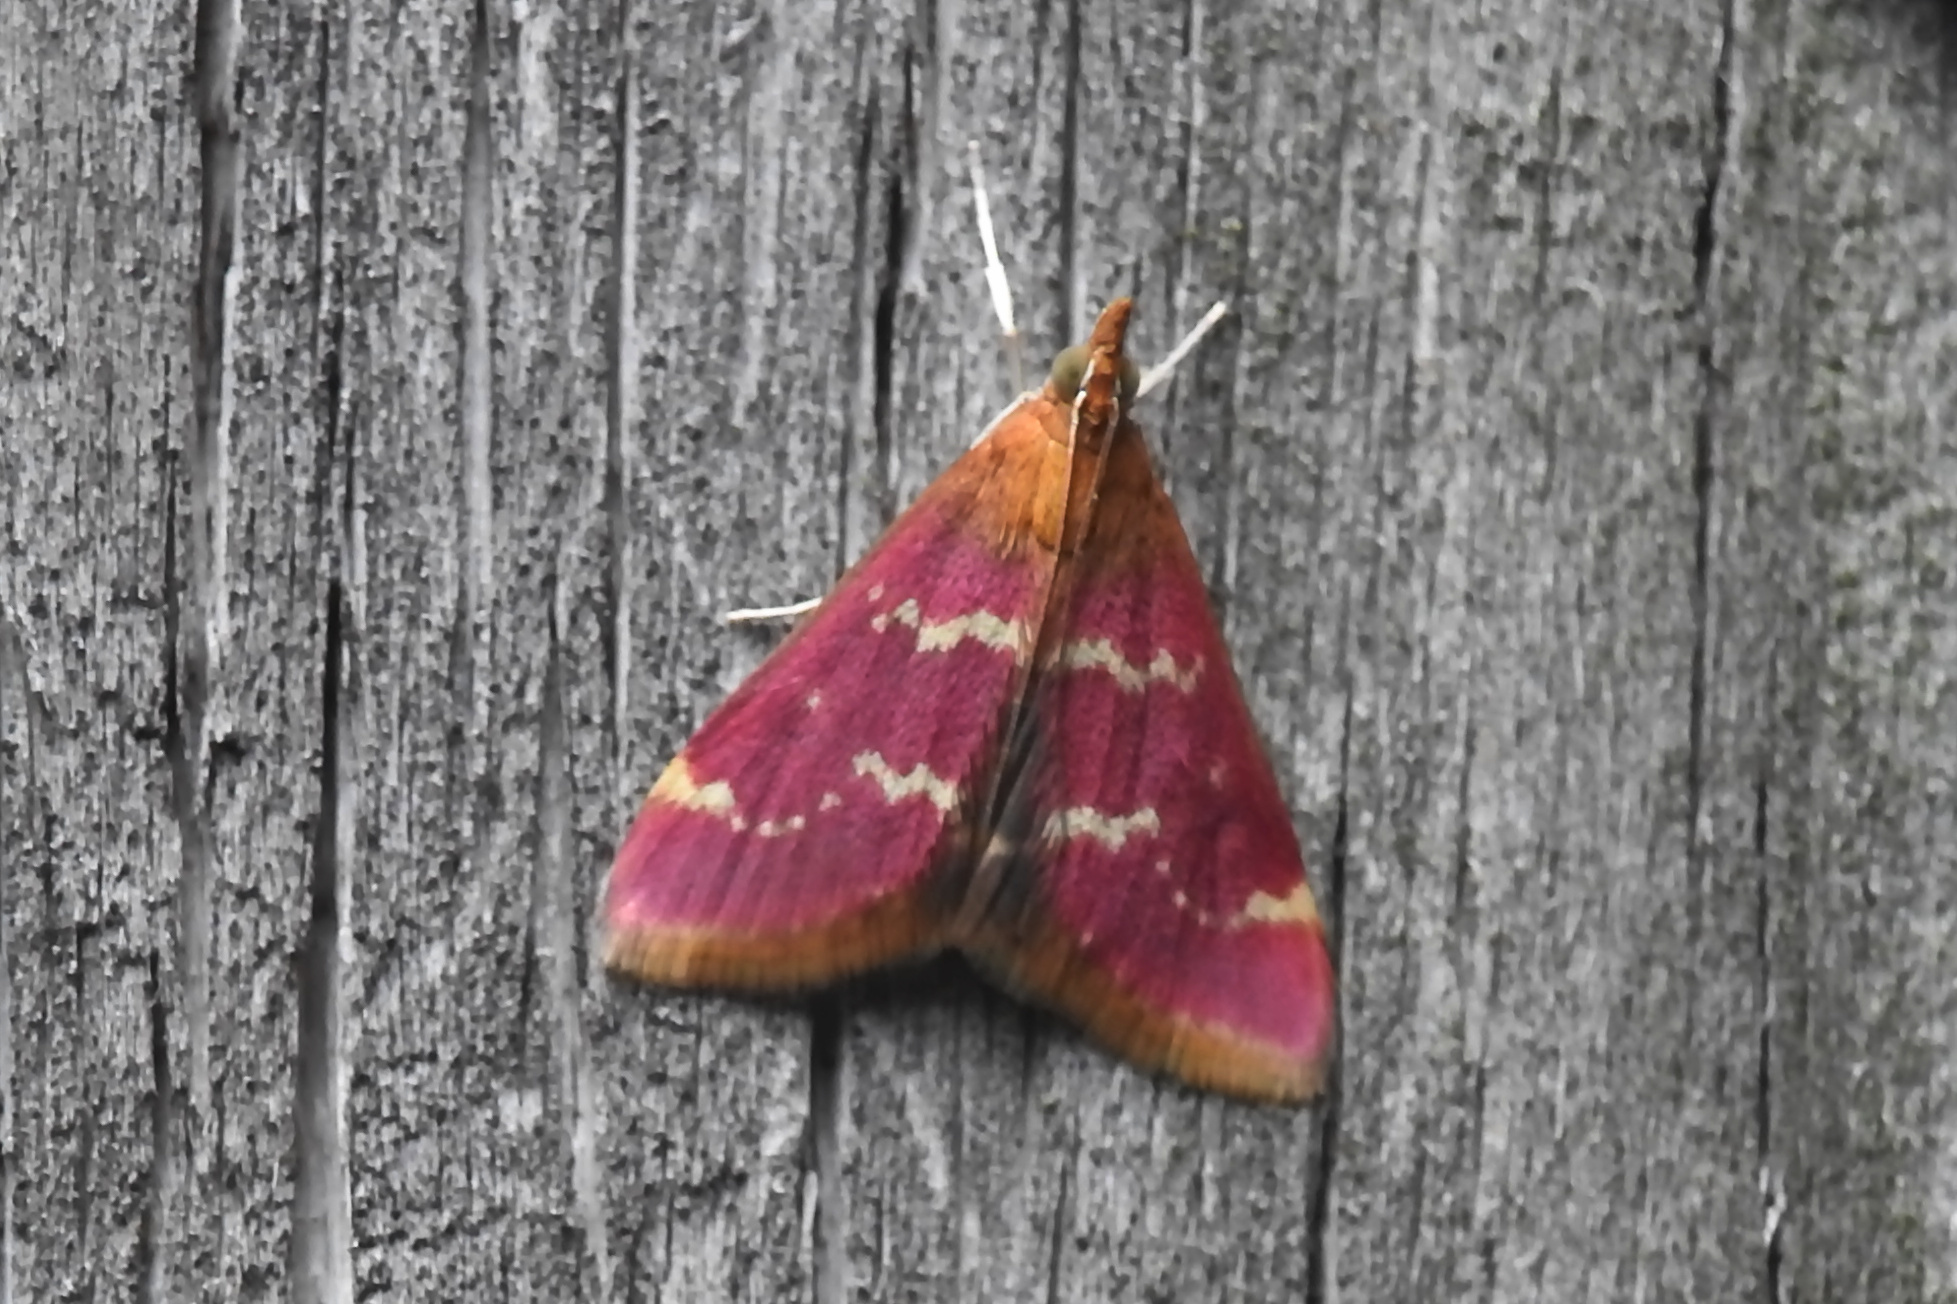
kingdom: Animalia
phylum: Arthropoda
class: Insecta
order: Lepidoptera
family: Crambidae
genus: Pyrausta
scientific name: Pyrausta signatalis
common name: Raspberry pyrausta moth
